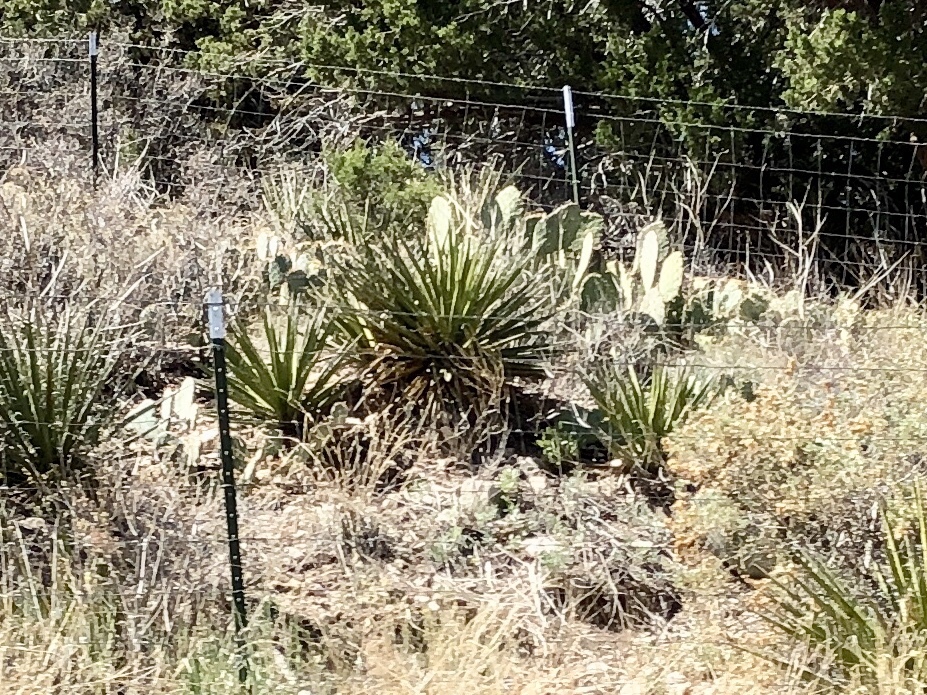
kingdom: Plantae
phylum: Tracheophyta
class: Liliopsida
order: Asparagales
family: Asparagaceae
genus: Yucca
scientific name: Yucca baccata
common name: Banana yucca
